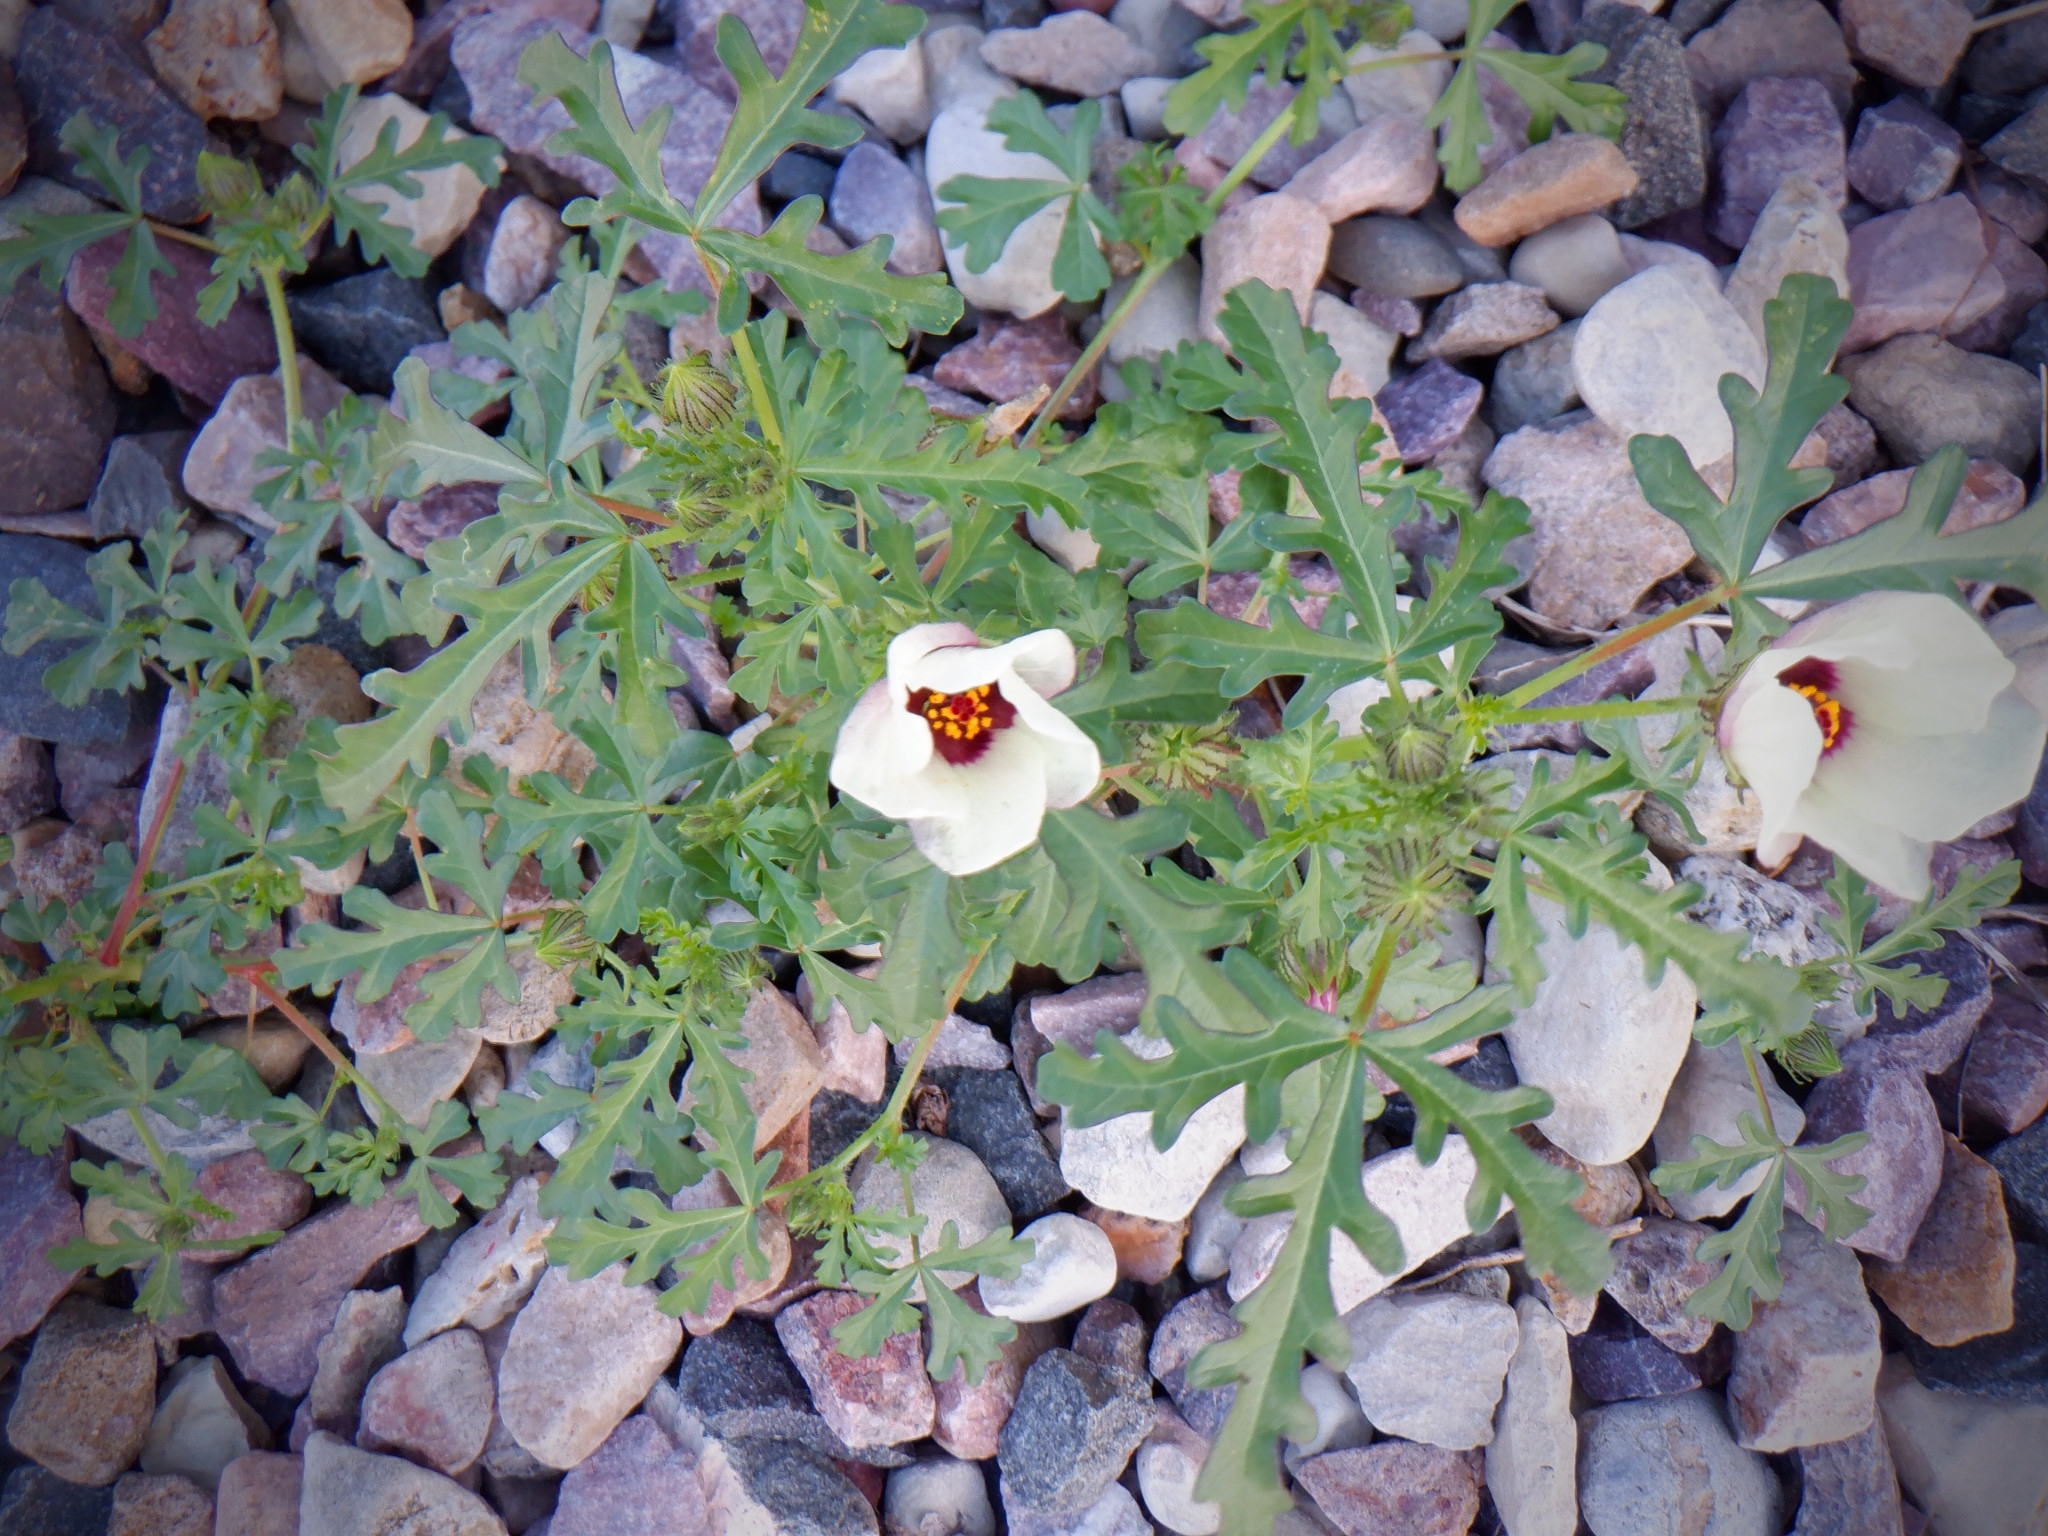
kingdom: Plantae
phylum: Tracheophyta
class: Magnoliopsida
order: Malvales
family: Malvaceae
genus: Hibiscus
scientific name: Hibiscus trionum
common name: Bladder ketmia
